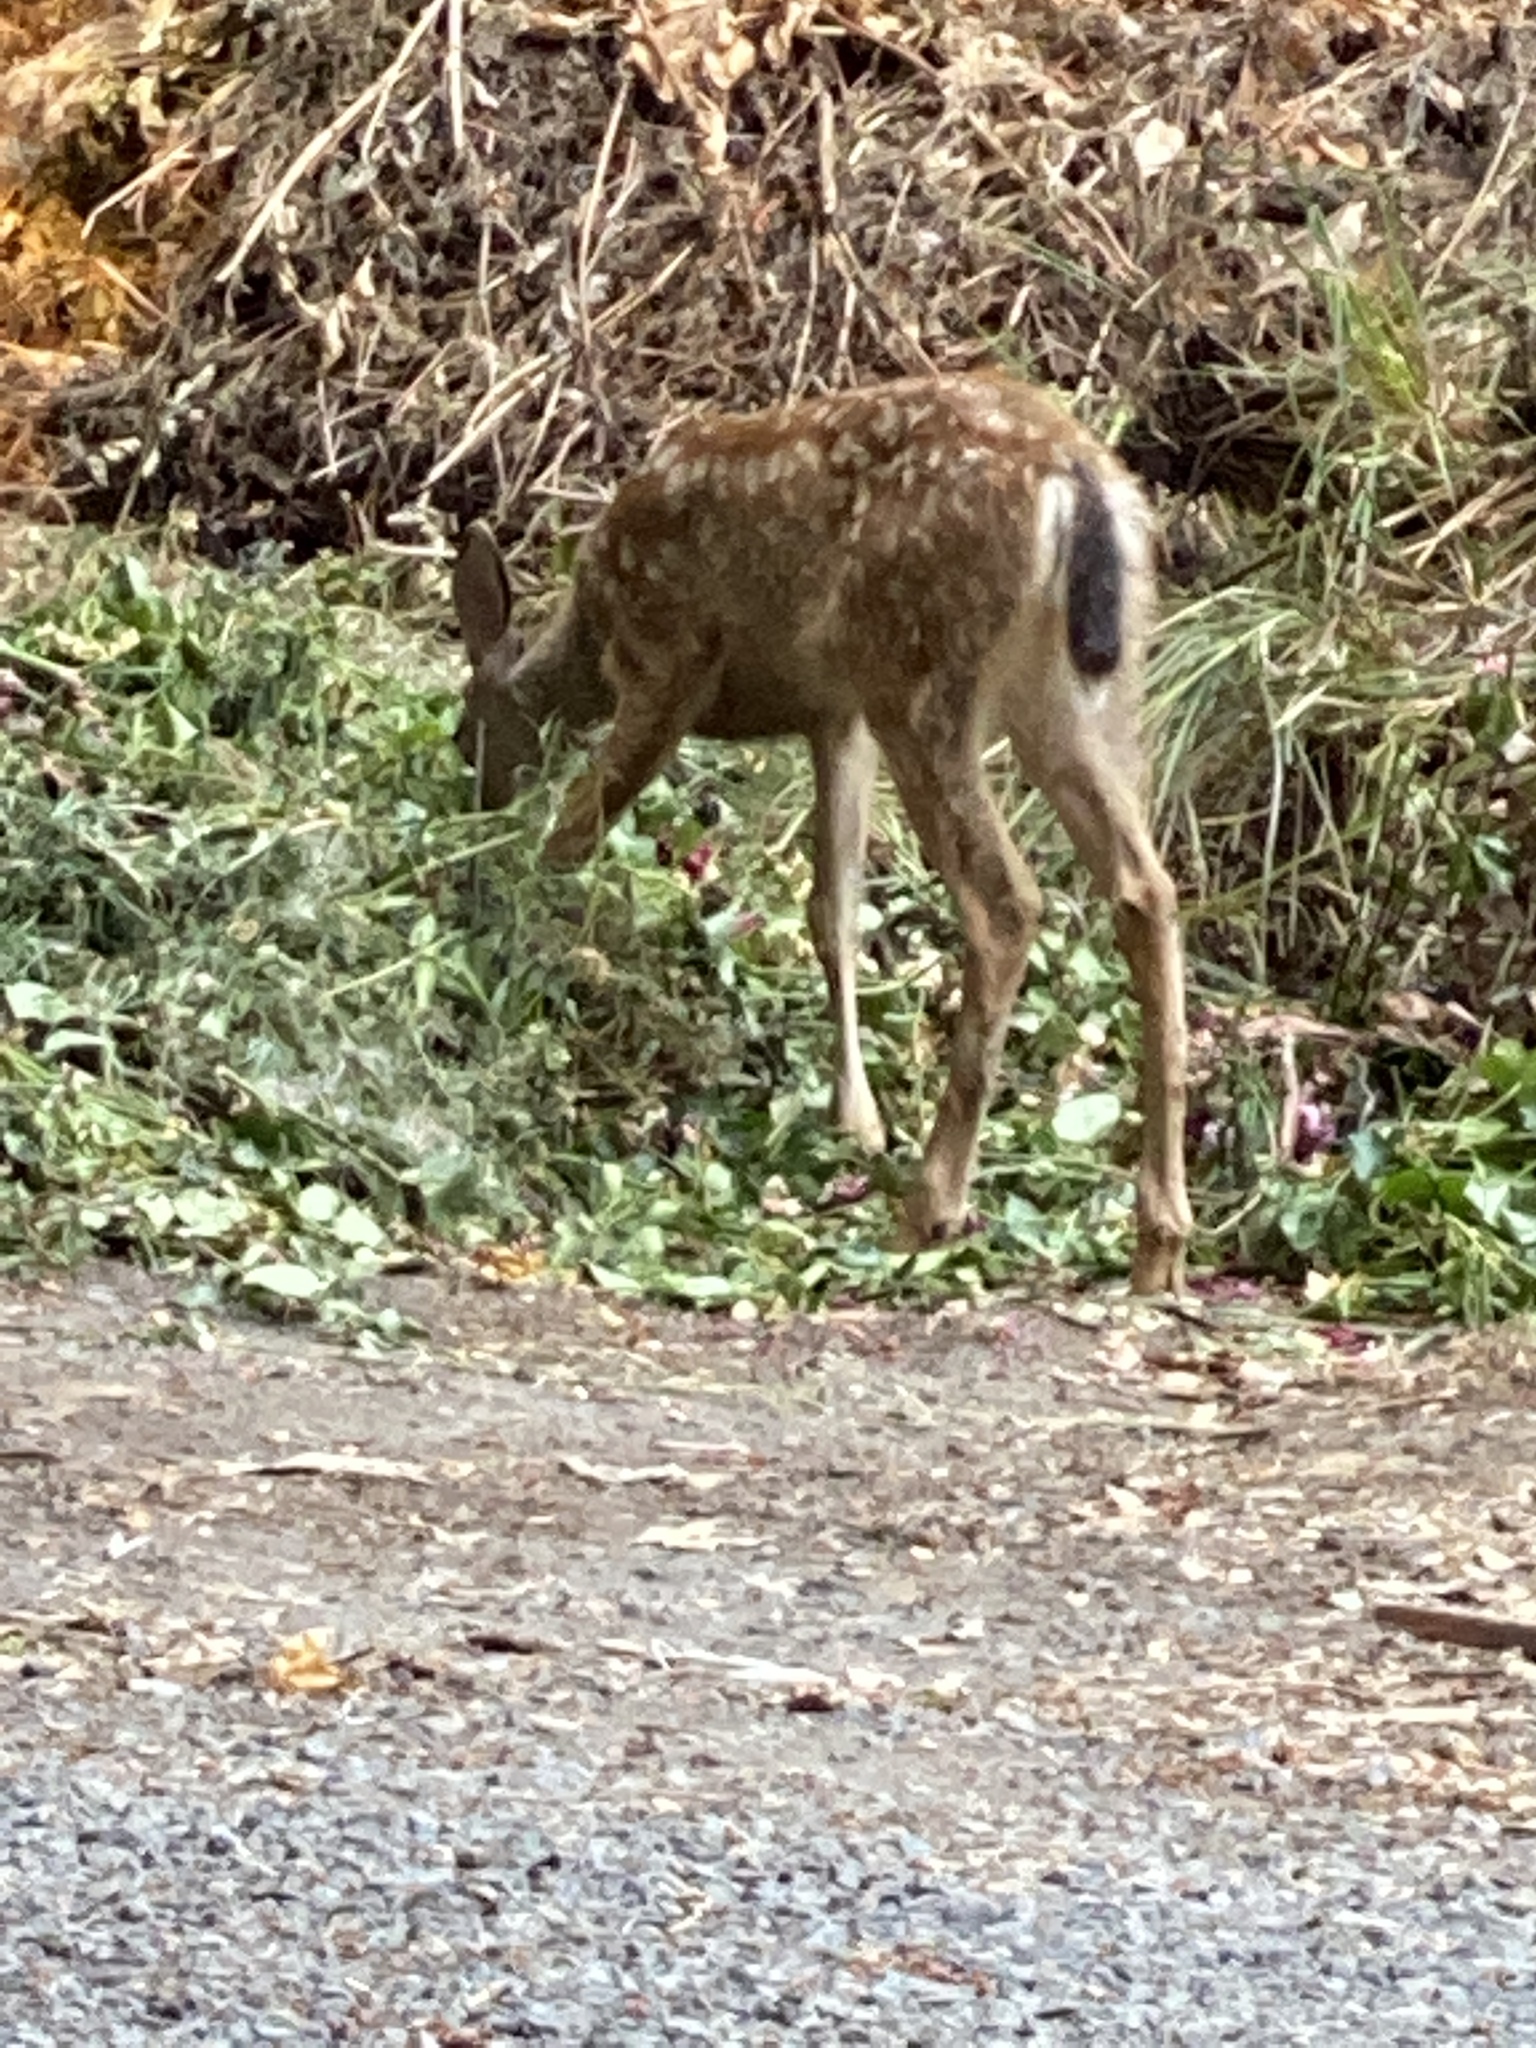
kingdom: Animalia
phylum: Chordata
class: Mammalia
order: Artiodactyla
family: Cervidae
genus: Odocoileus
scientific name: Odocoileus hemionus
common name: Mule deer
